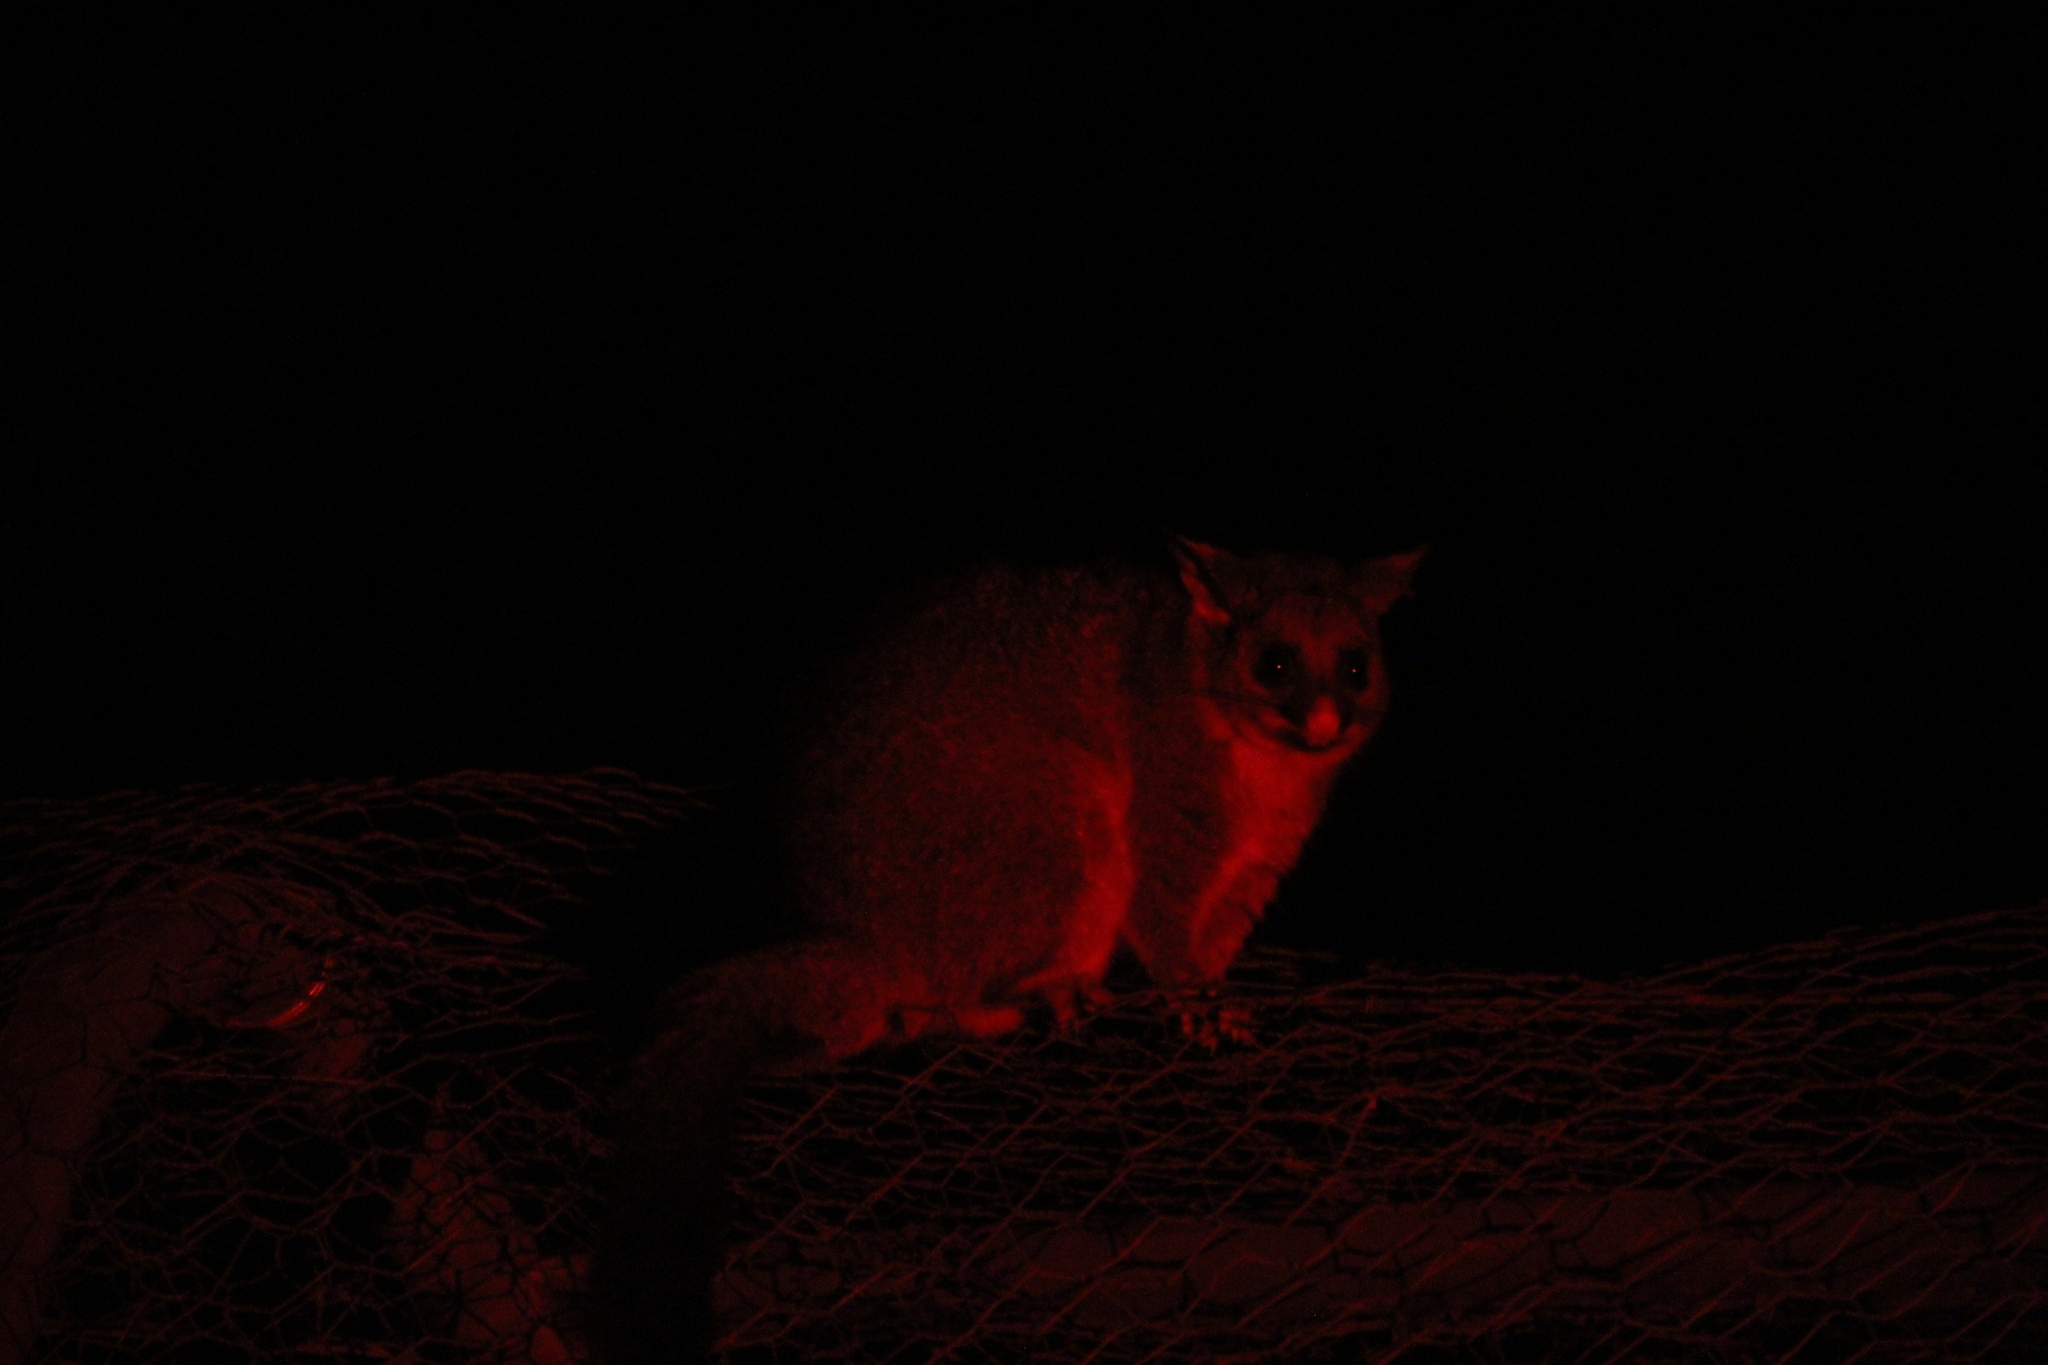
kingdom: Animalia
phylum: Chordata
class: Mammalia
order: Diprotodontia
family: Phalangeridae
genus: Trichosurus
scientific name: Trichosurus vulpecula
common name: Common brushtail
